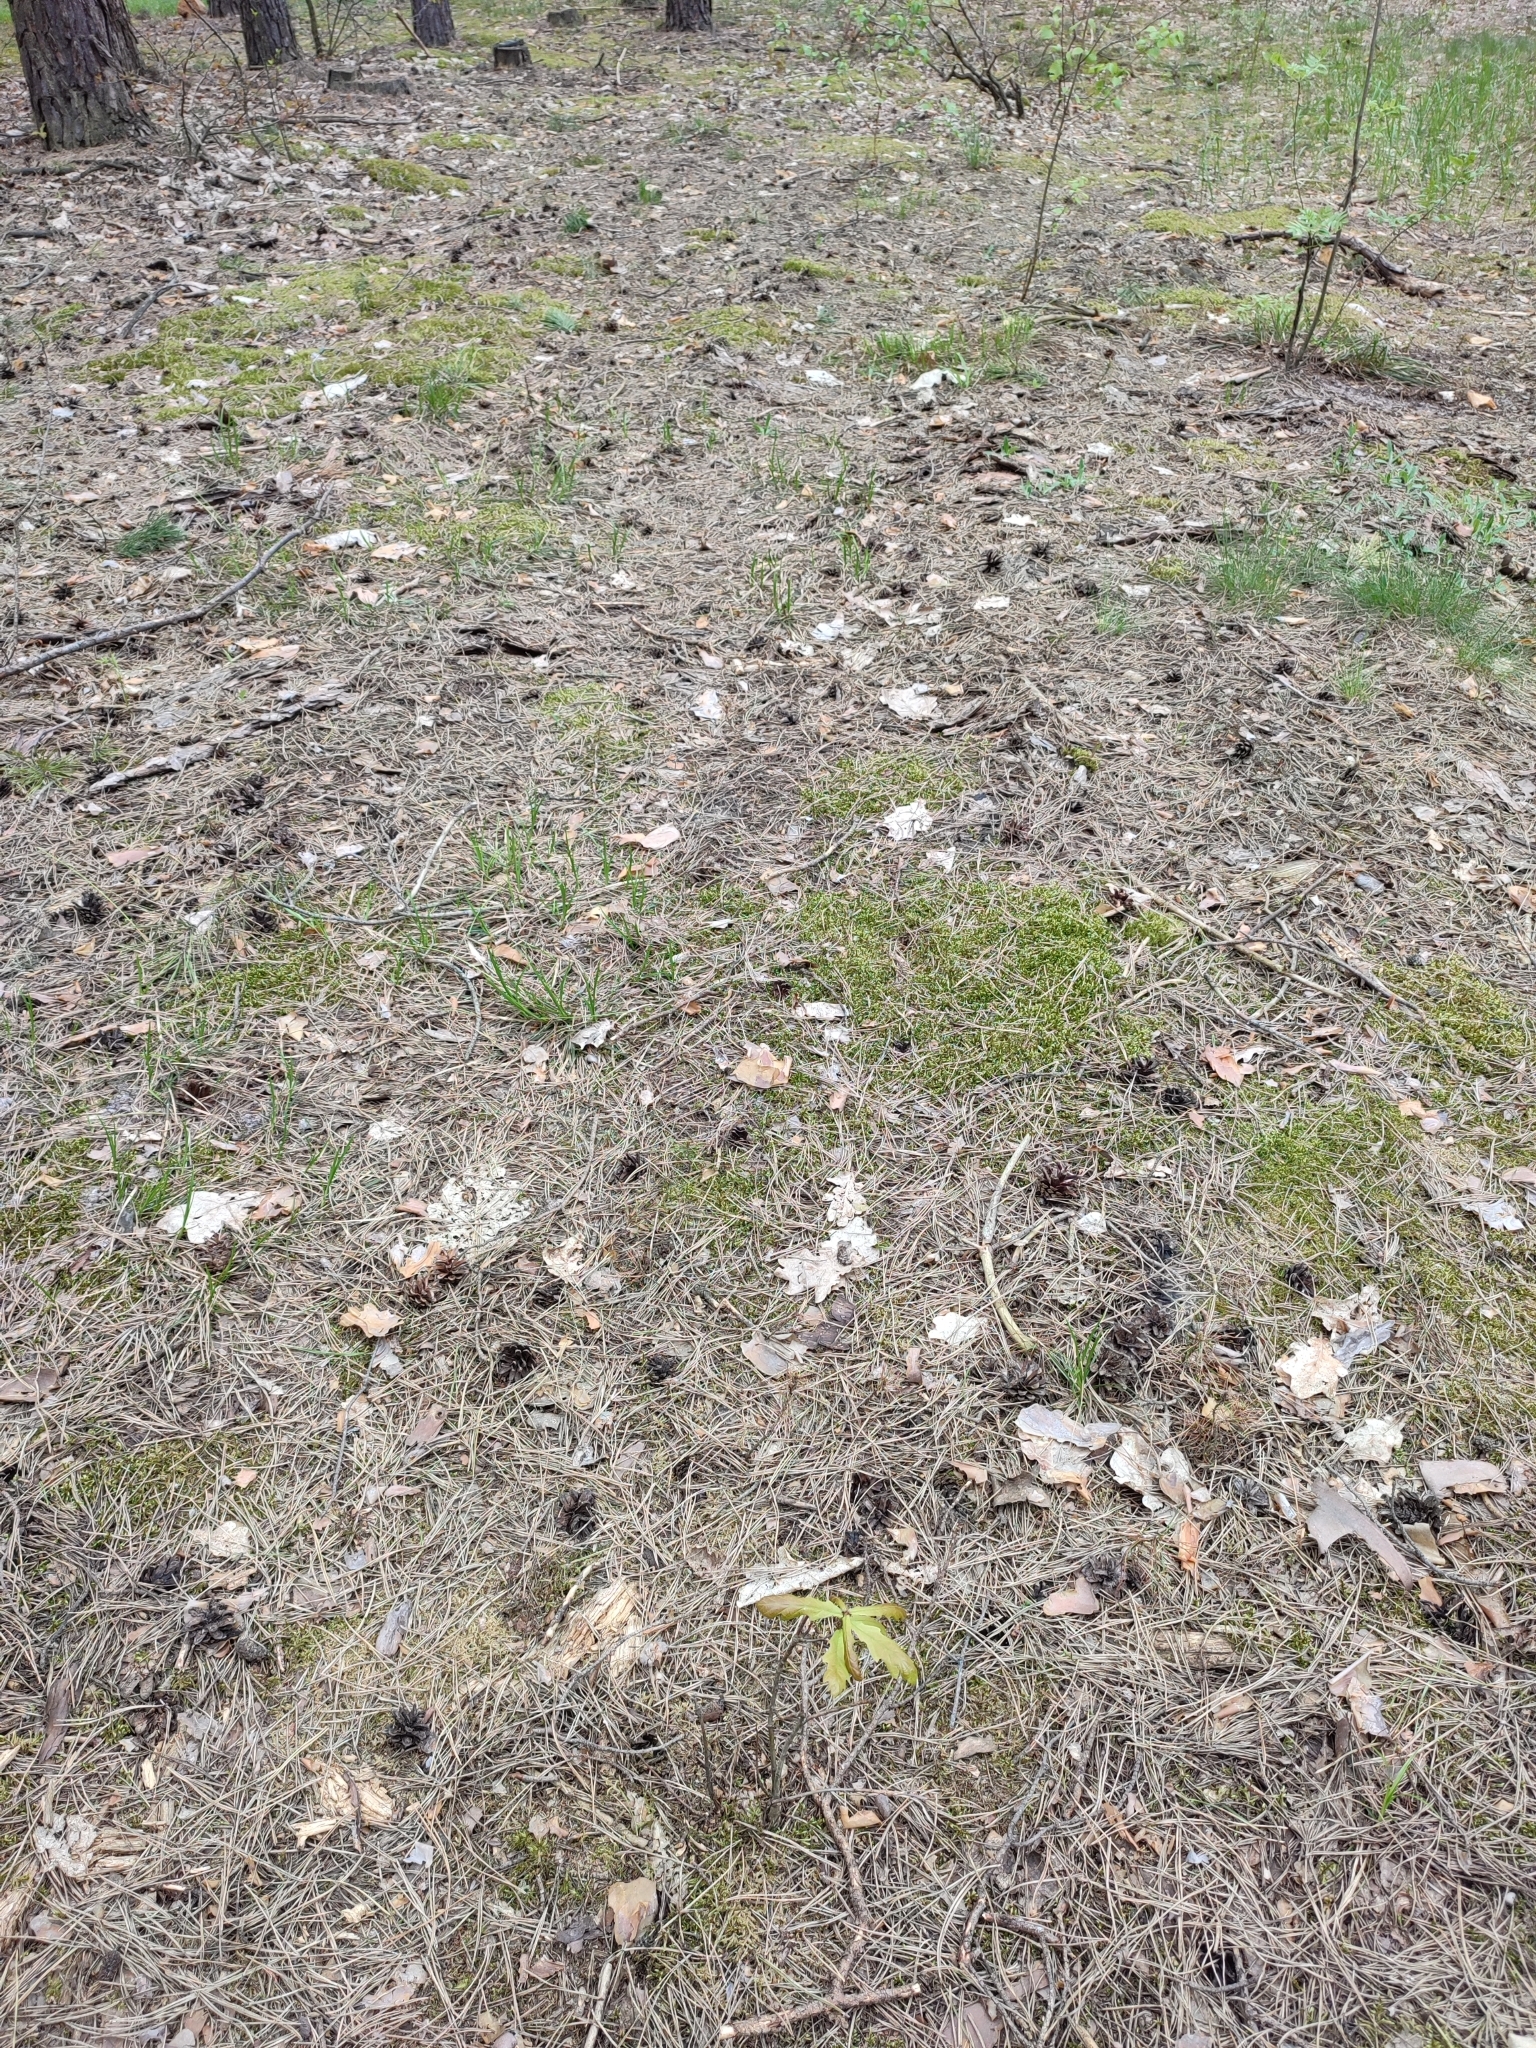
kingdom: Plantae
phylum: Tracheophyta
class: Magnoliopsida
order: Fagales
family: Fagaceae
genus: Quercus
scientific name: Quercus robur
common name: Pedunculate oak
